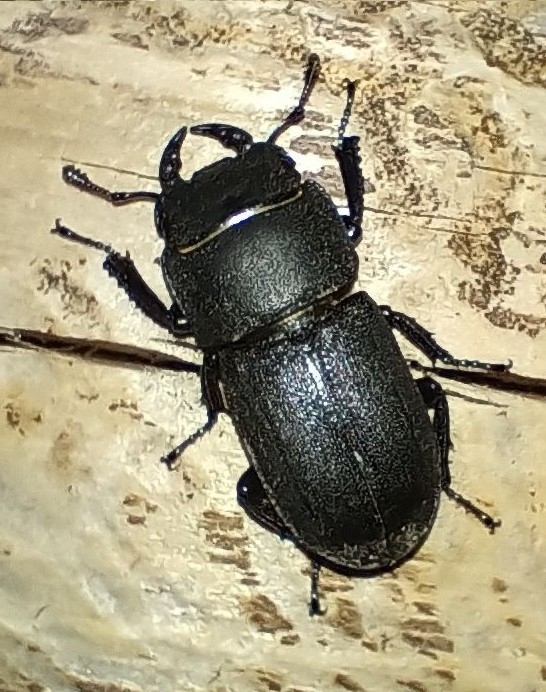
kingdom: Animalia
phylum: Arthropoda
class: Insecta
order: Coleoptera
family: Lucanidae
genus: Dorcus
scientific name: Dorcus parallelipipedus
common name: Lesser stag beetle
